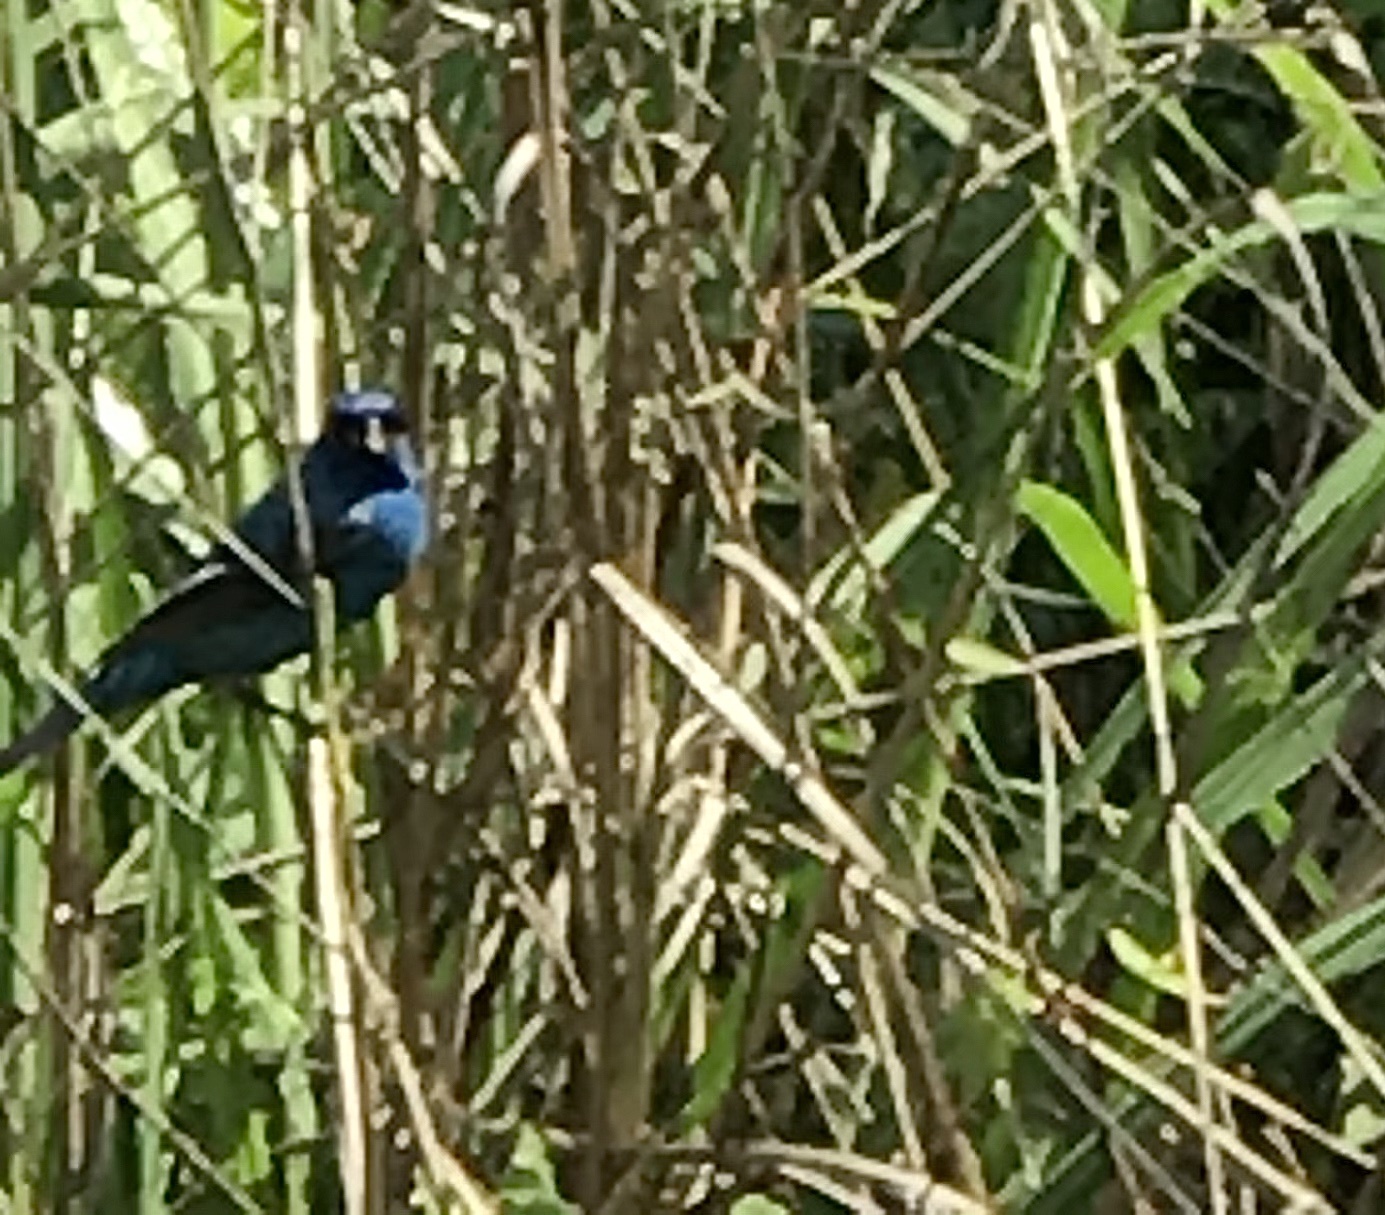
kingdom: Animalia
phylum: Chordata
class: Aves
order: Passeriformes
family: Cardinalidae
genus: Passerina
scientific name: Passerina cyanea
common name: Indigo bunting
